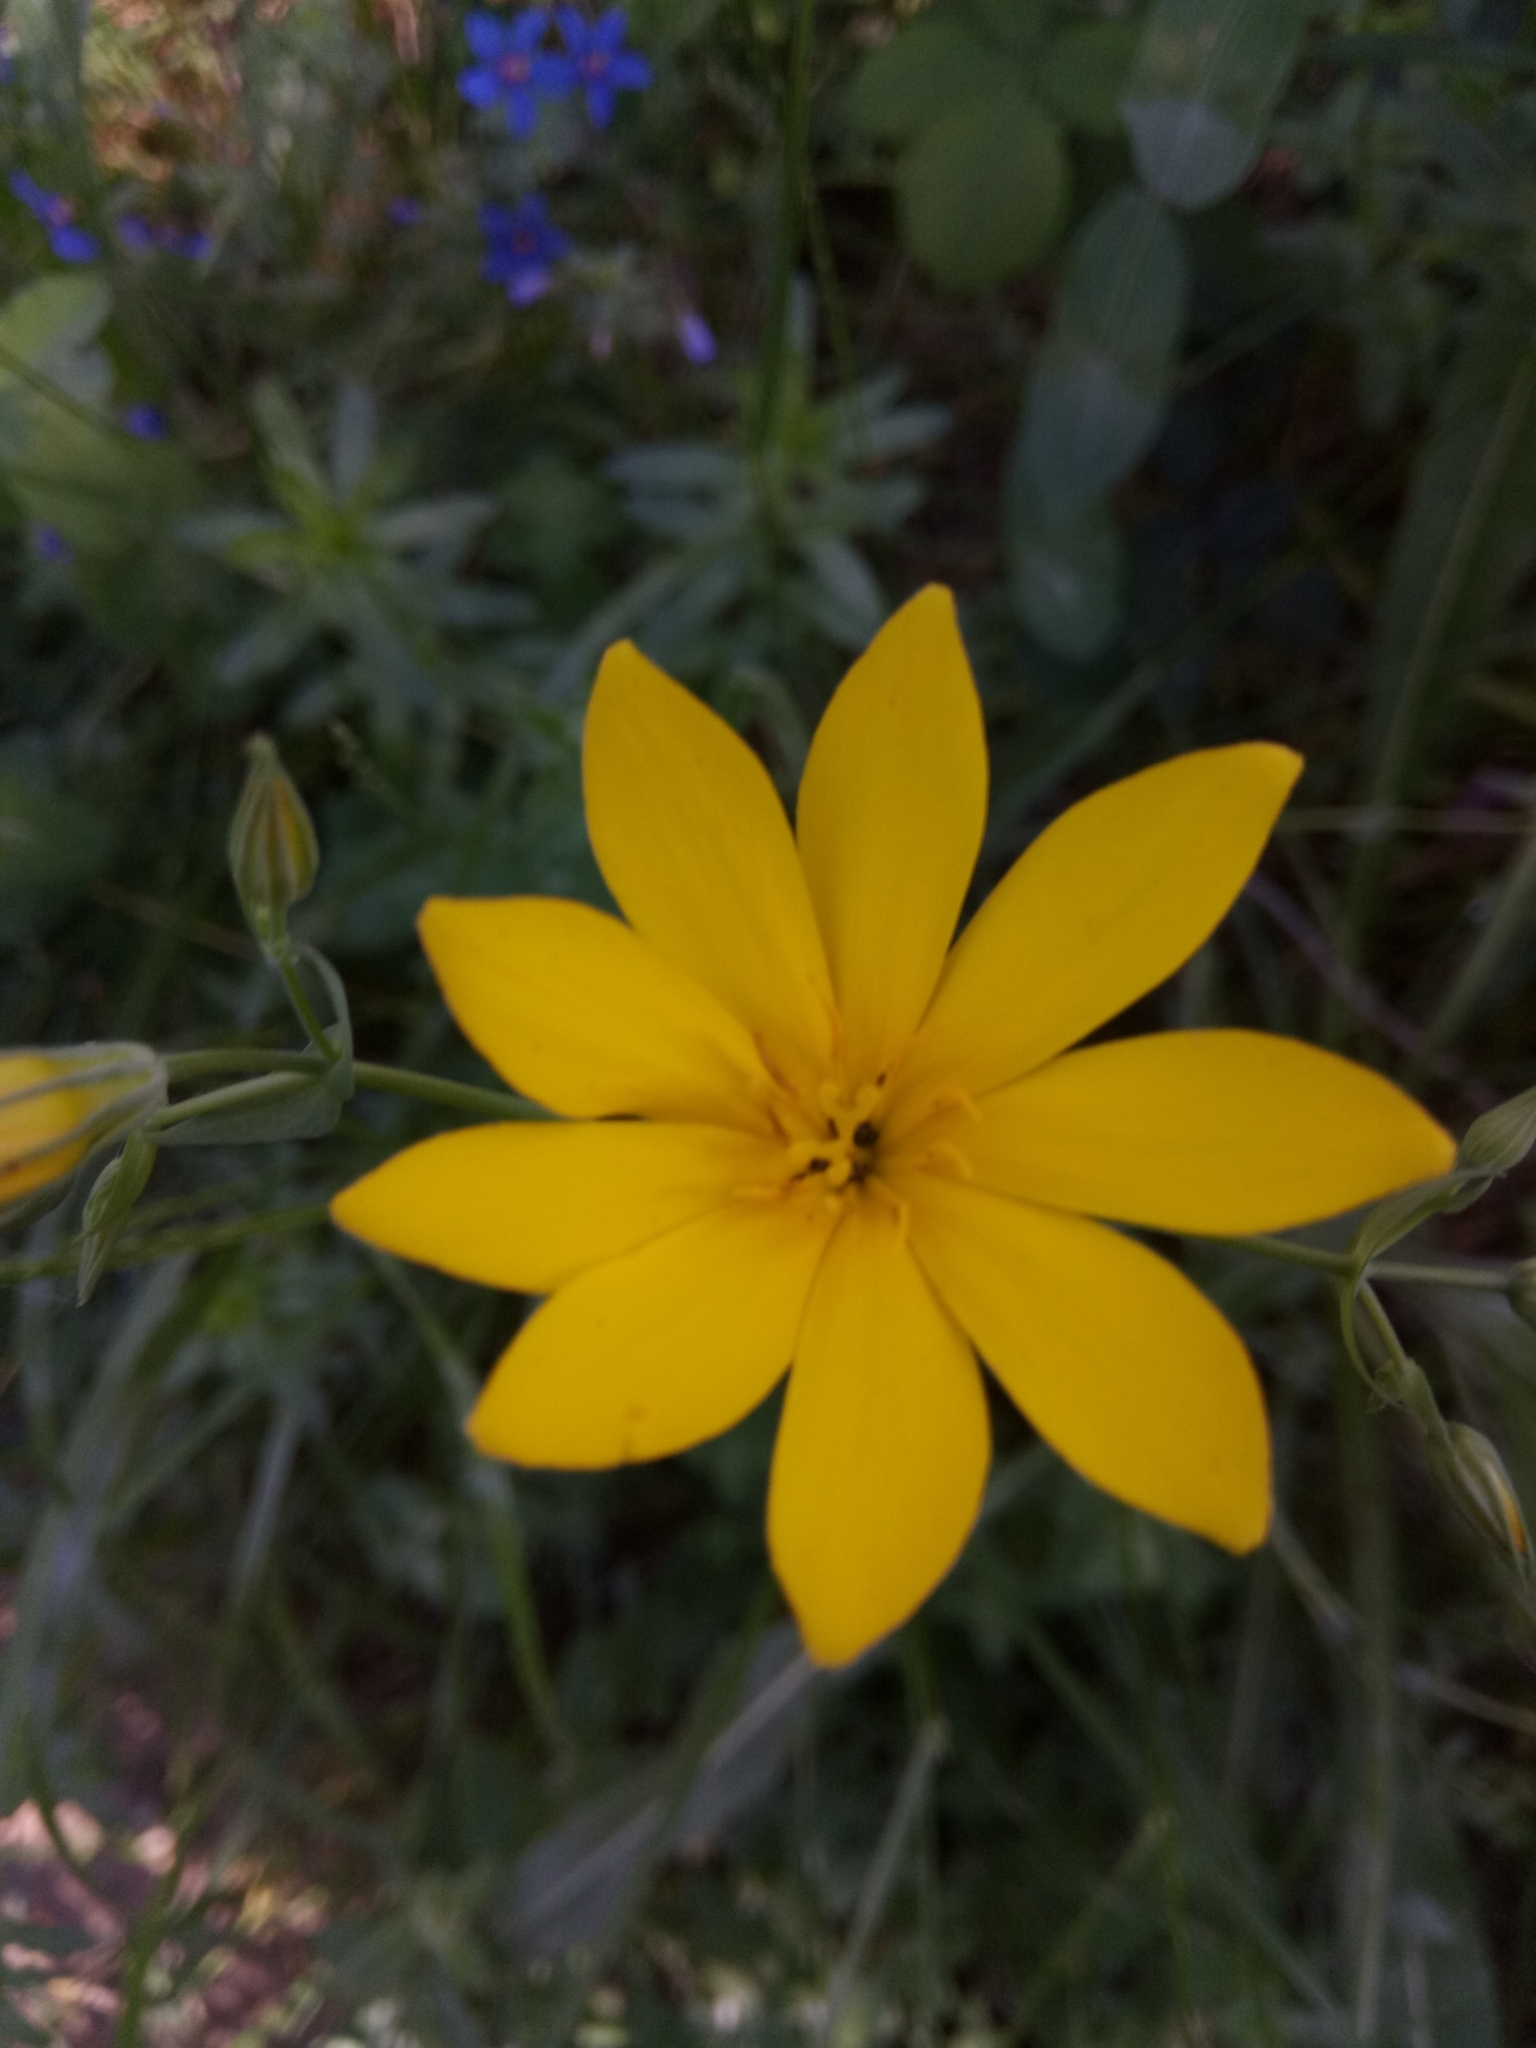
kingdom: Plantae
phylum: Tracheophyta
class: Magnoliopsida
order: Gentianales
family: Gentianaceae
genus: Blackstonia
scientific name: Blackstonia grandiflora
